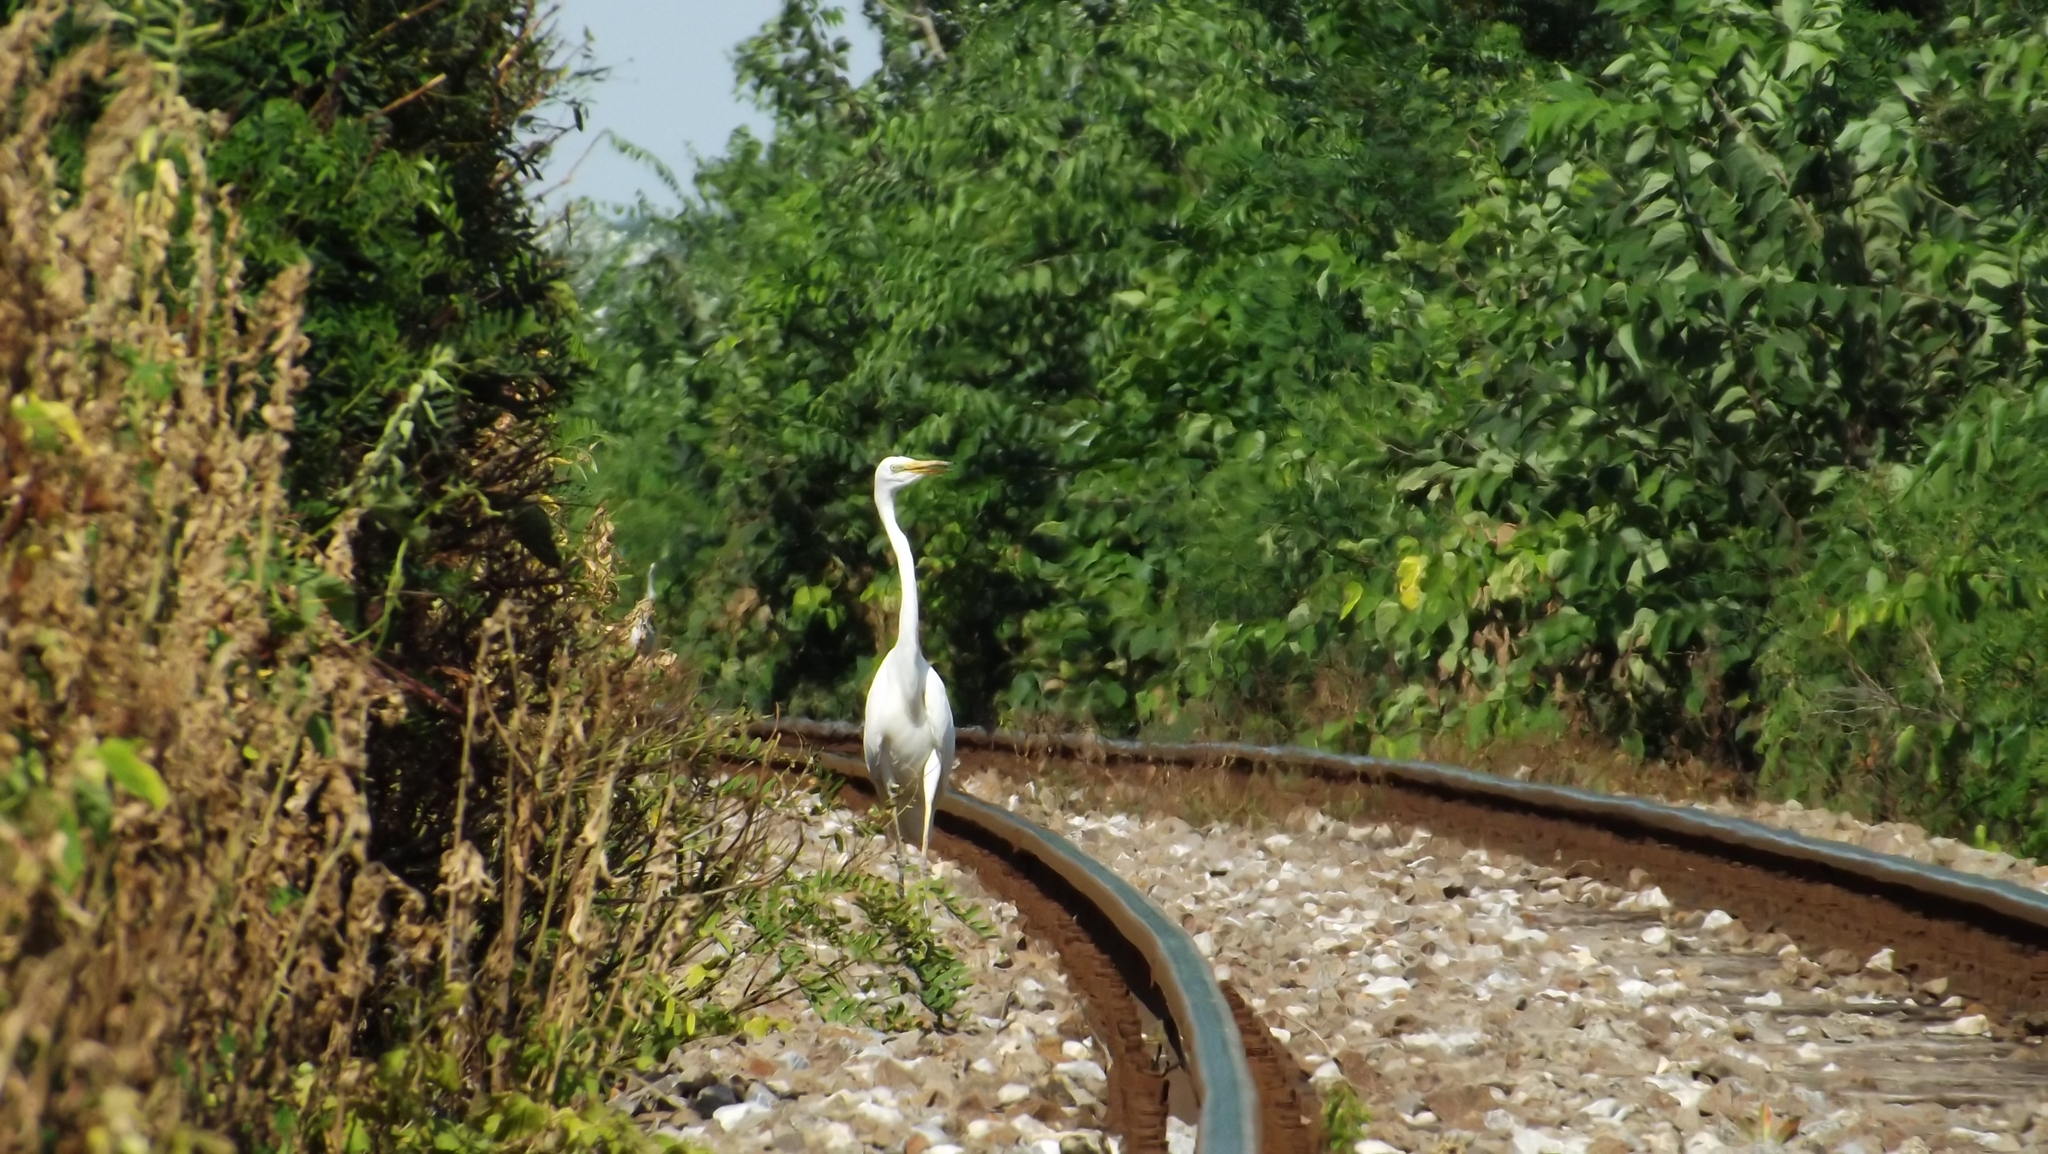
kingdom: Animalia
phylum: Chordata
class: Aves
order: Pelecaniformes
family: Ardeidae
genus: Ardea
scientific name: Ardea alba
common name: Great egret
